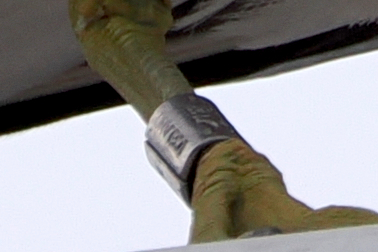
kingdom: Animalia
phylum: Chordata
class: Aves
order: Charadriiformes
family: Laridae
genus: Larus
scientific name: Larus canus
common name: Mew gull
